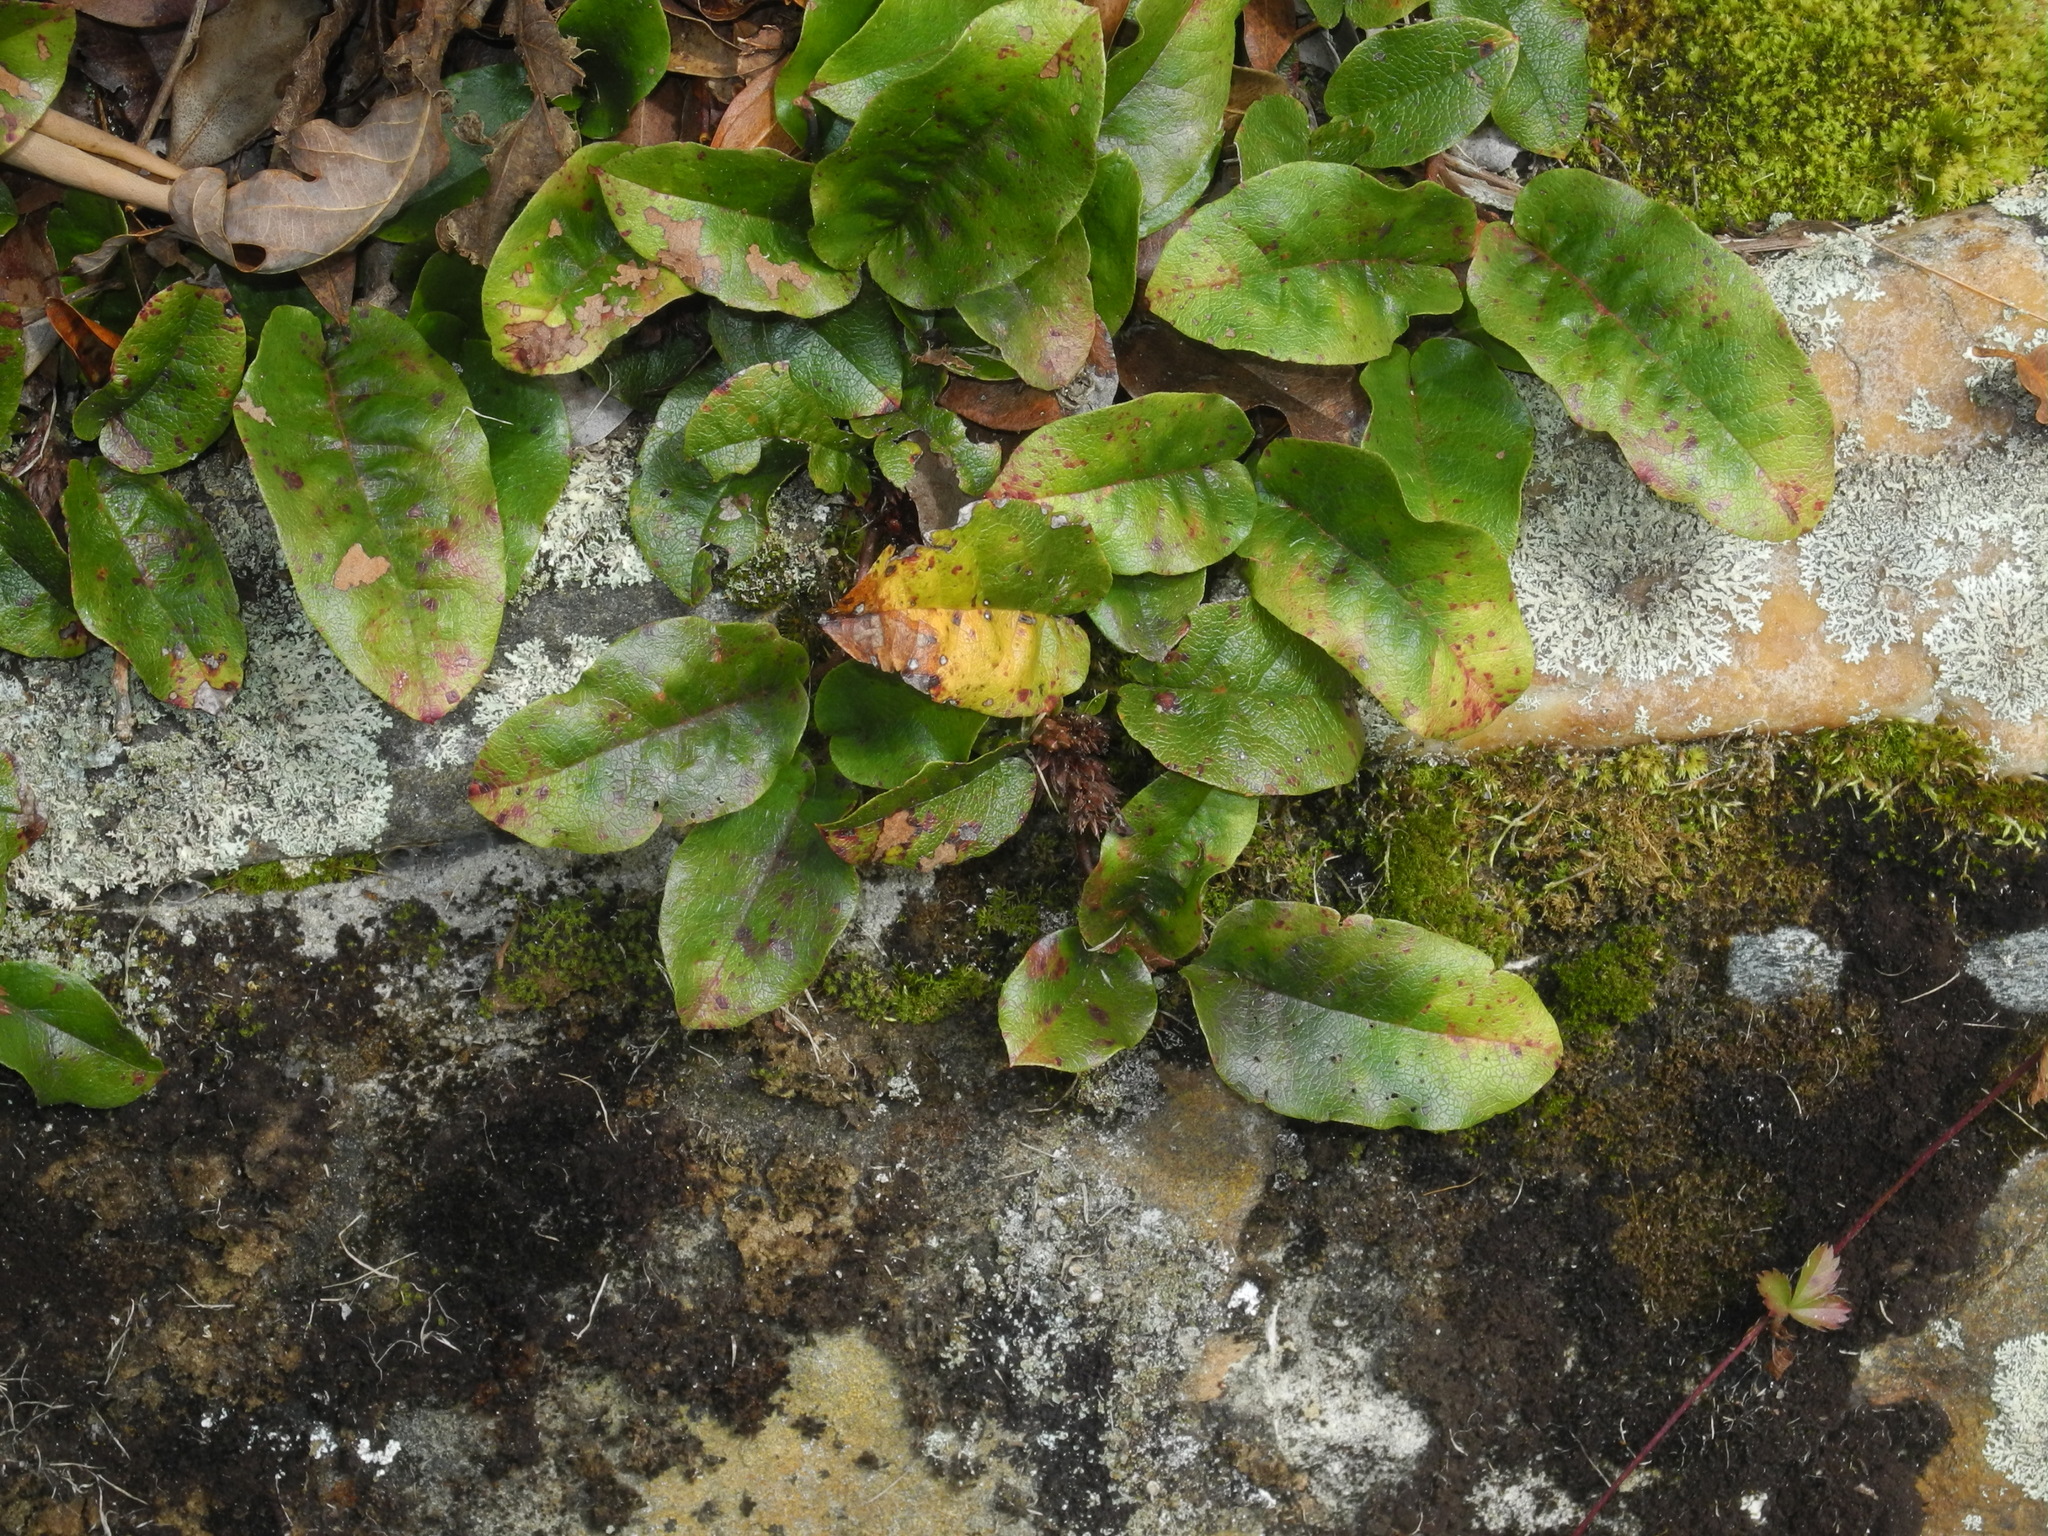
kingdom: Plantae
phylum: Tracheophyta
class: Magnoliopsida
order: Ericales
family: Ericaceae
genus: Epigaea
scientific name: Epigaea repens
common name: Gravelroot
